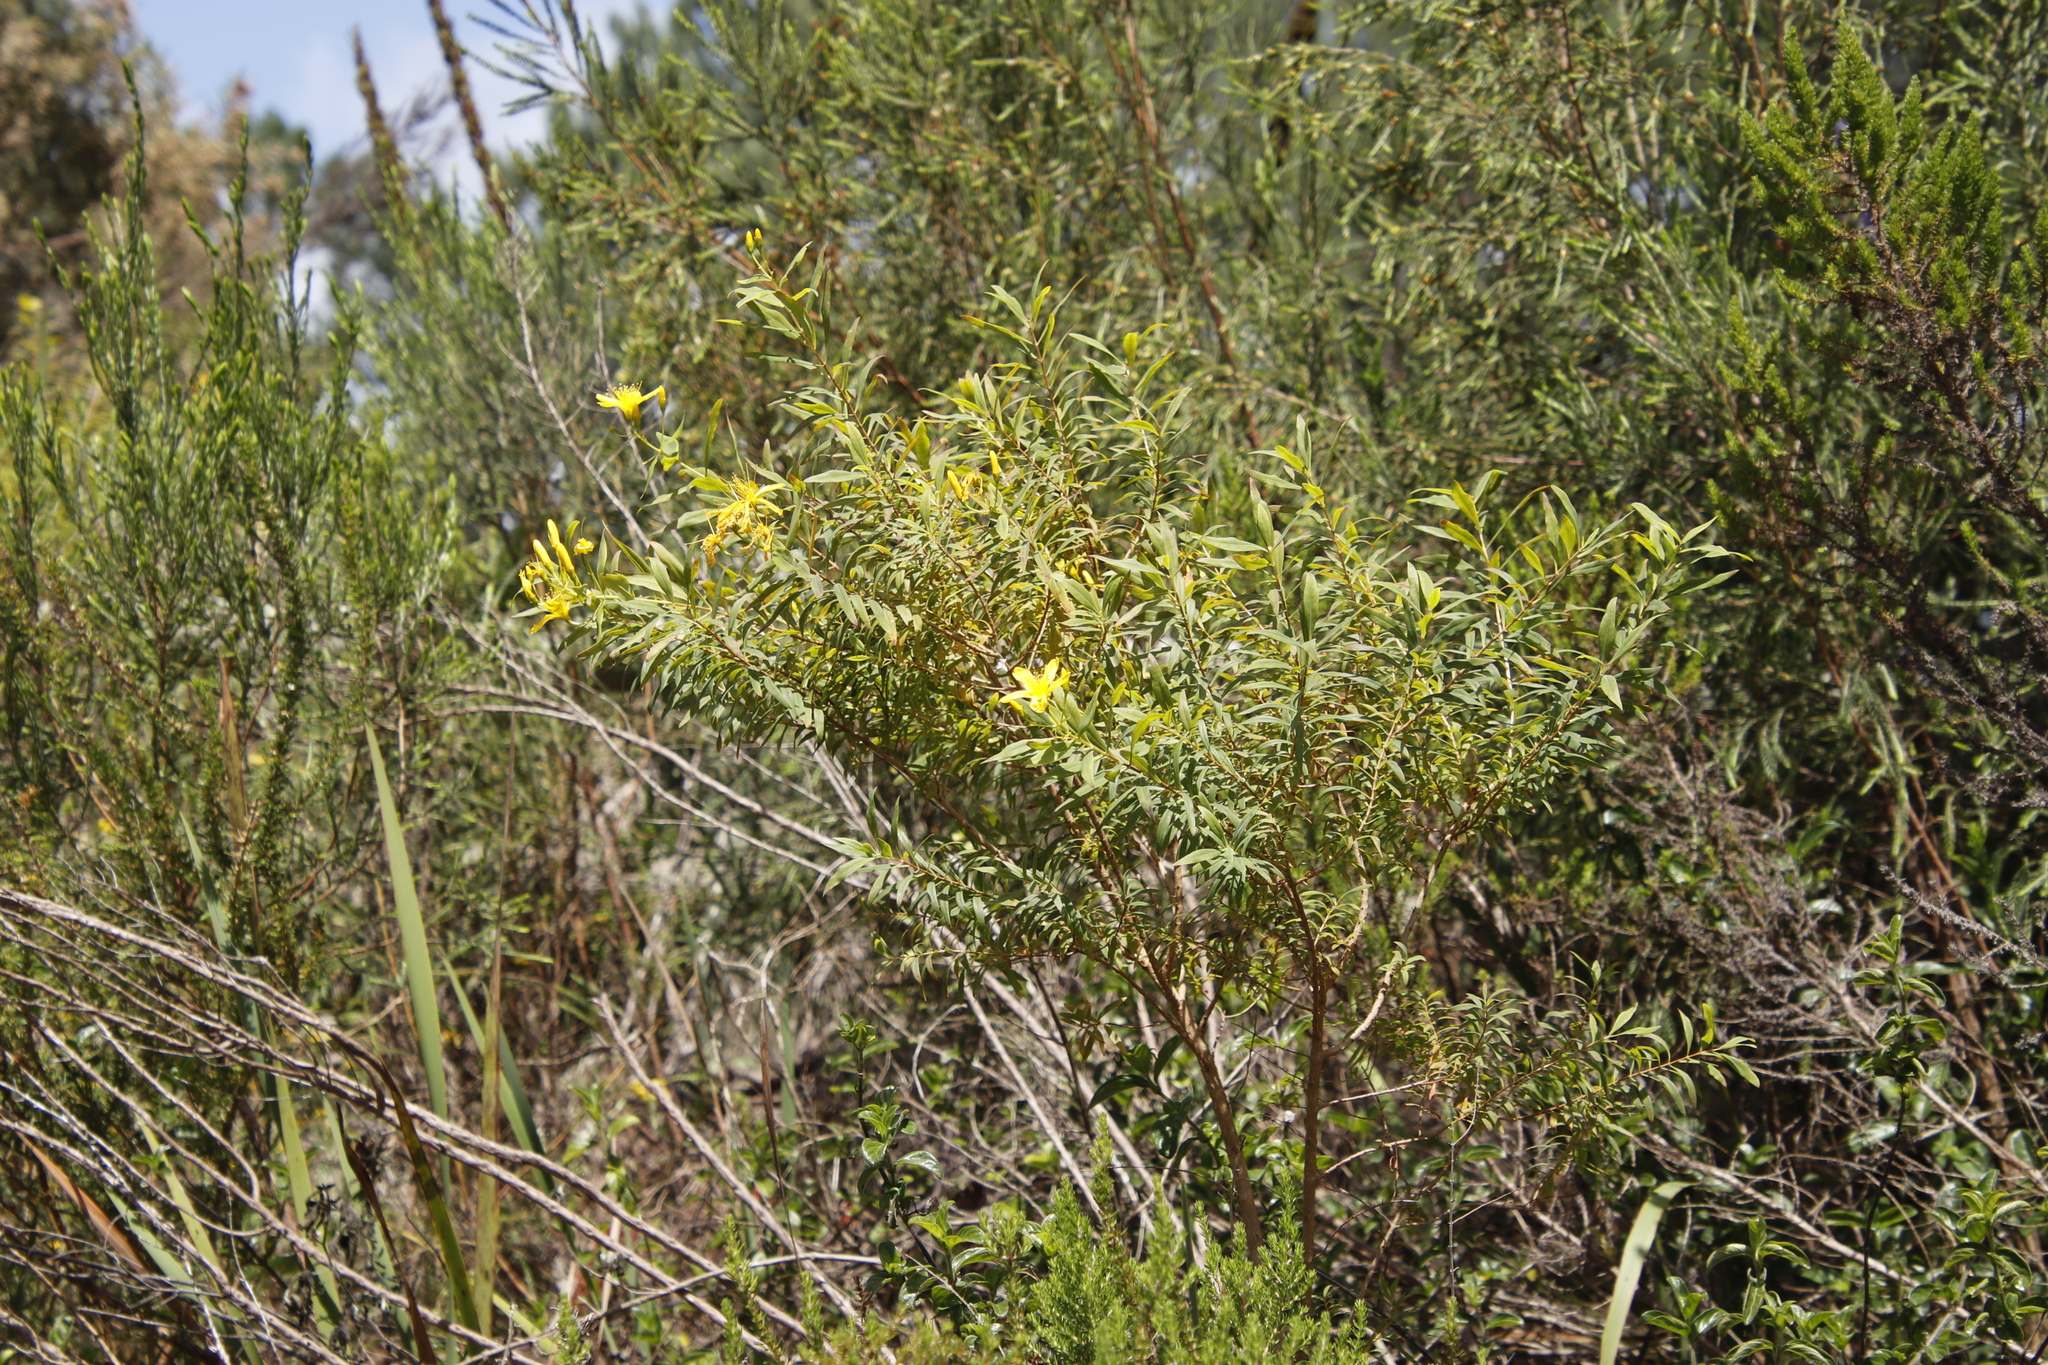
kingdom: Plantae
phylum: Tracheophyta
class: Magnoliopsida
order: Malpighiales
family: Hypericaceae
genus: Hypericum
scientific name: Hypericum canariense
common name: Canary island st. johnswort
